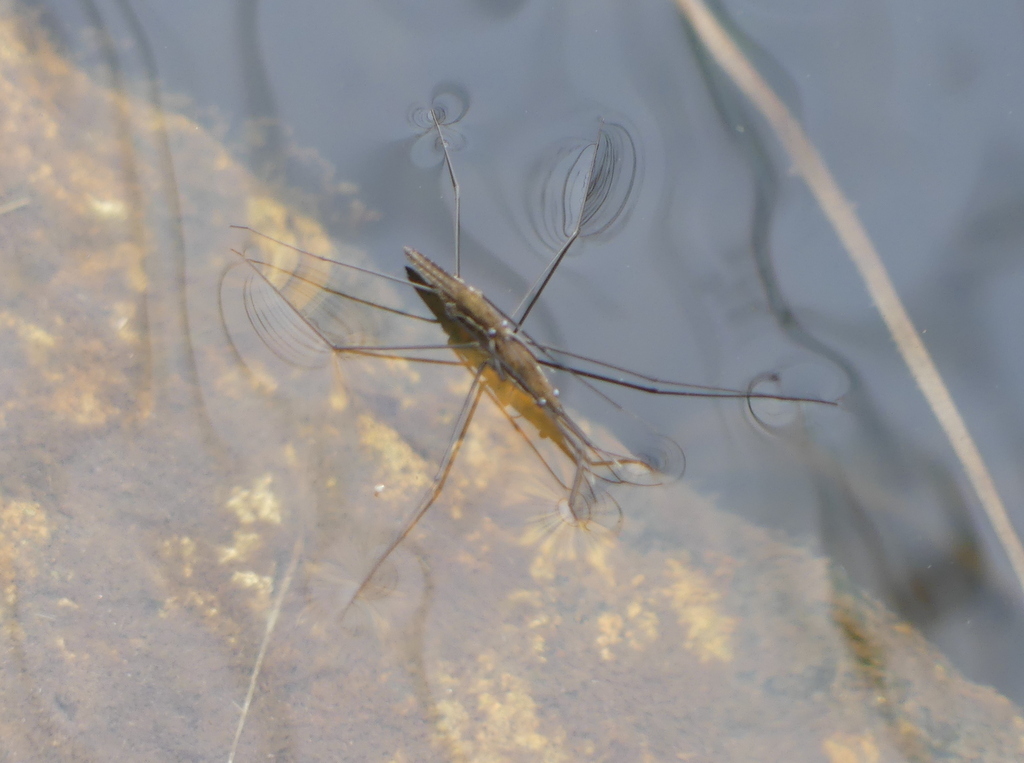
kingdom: Animalia
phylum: Arthropoda
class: Insecta
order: Hemiptera
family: Gerridae
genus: Aquarius
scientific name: Aquarius najas
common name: River skater
